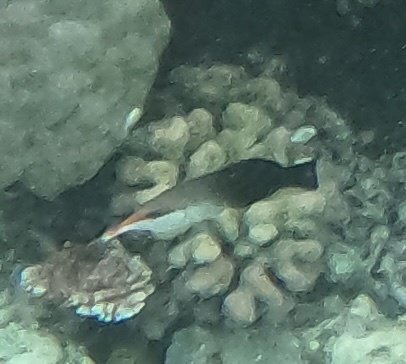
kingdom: Animalia
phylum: Chordata
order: Perciformes
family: Labridae
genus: Gomphosus
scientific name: Gomphosus varius
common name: Bird wrasse
